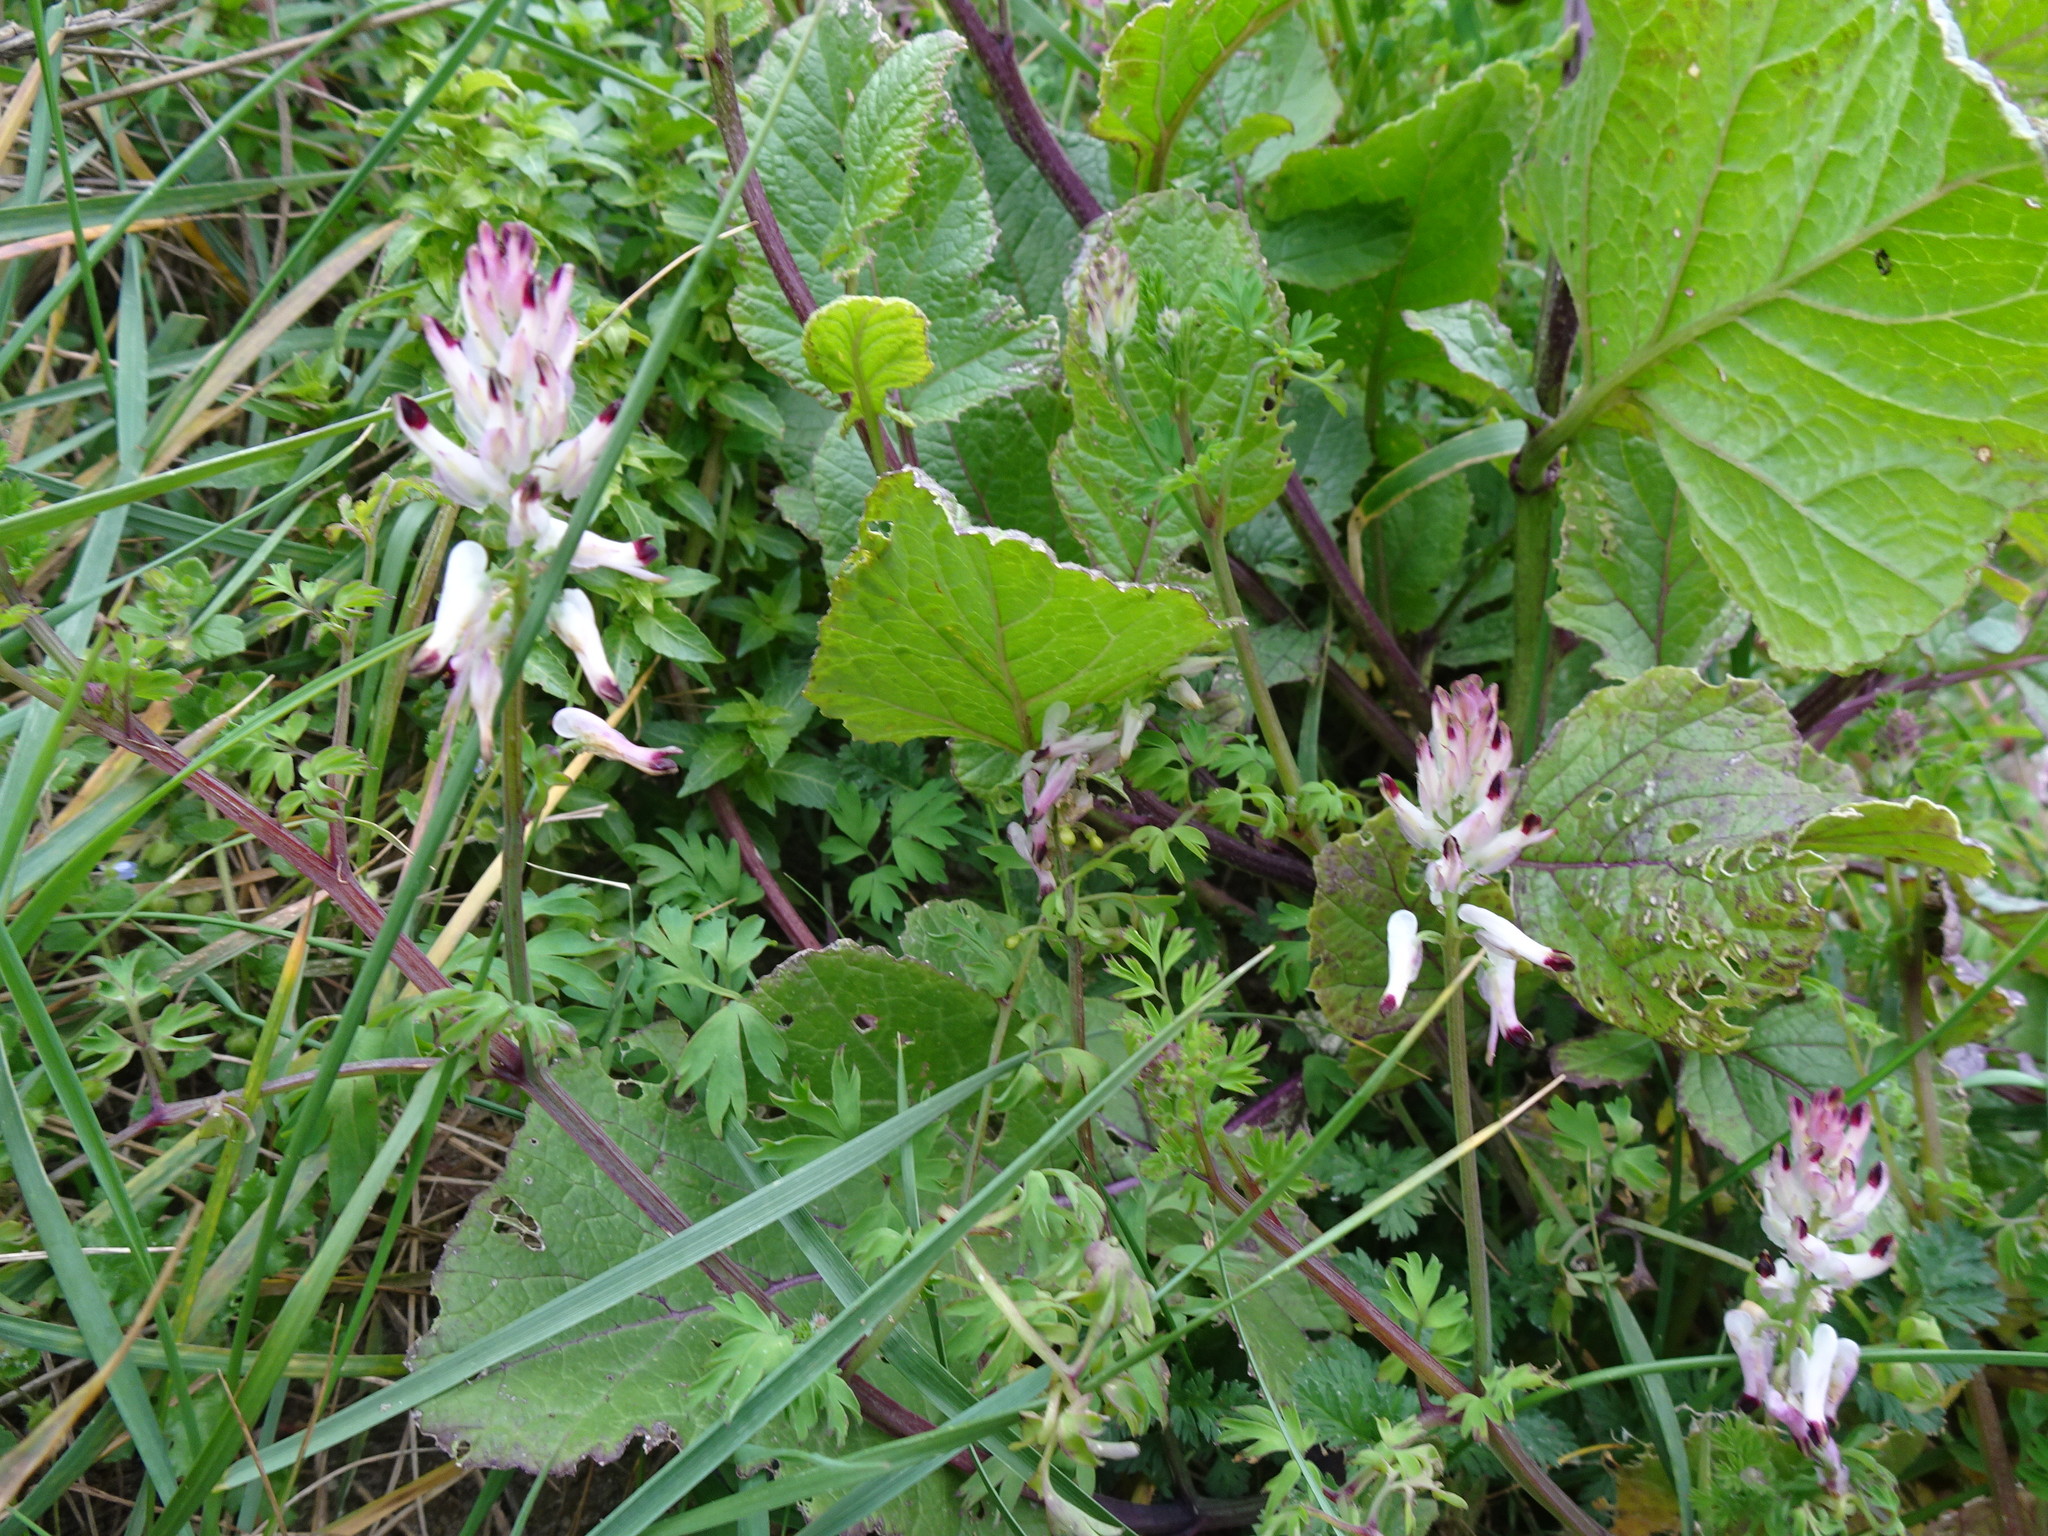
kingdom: Plantae
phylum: Tracheophyta
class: Magnoliopsida
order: Ranunculales
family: Papaveraceae
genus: Fumaria
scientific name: Fumaria capreolata
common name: White ramping-fumitory
